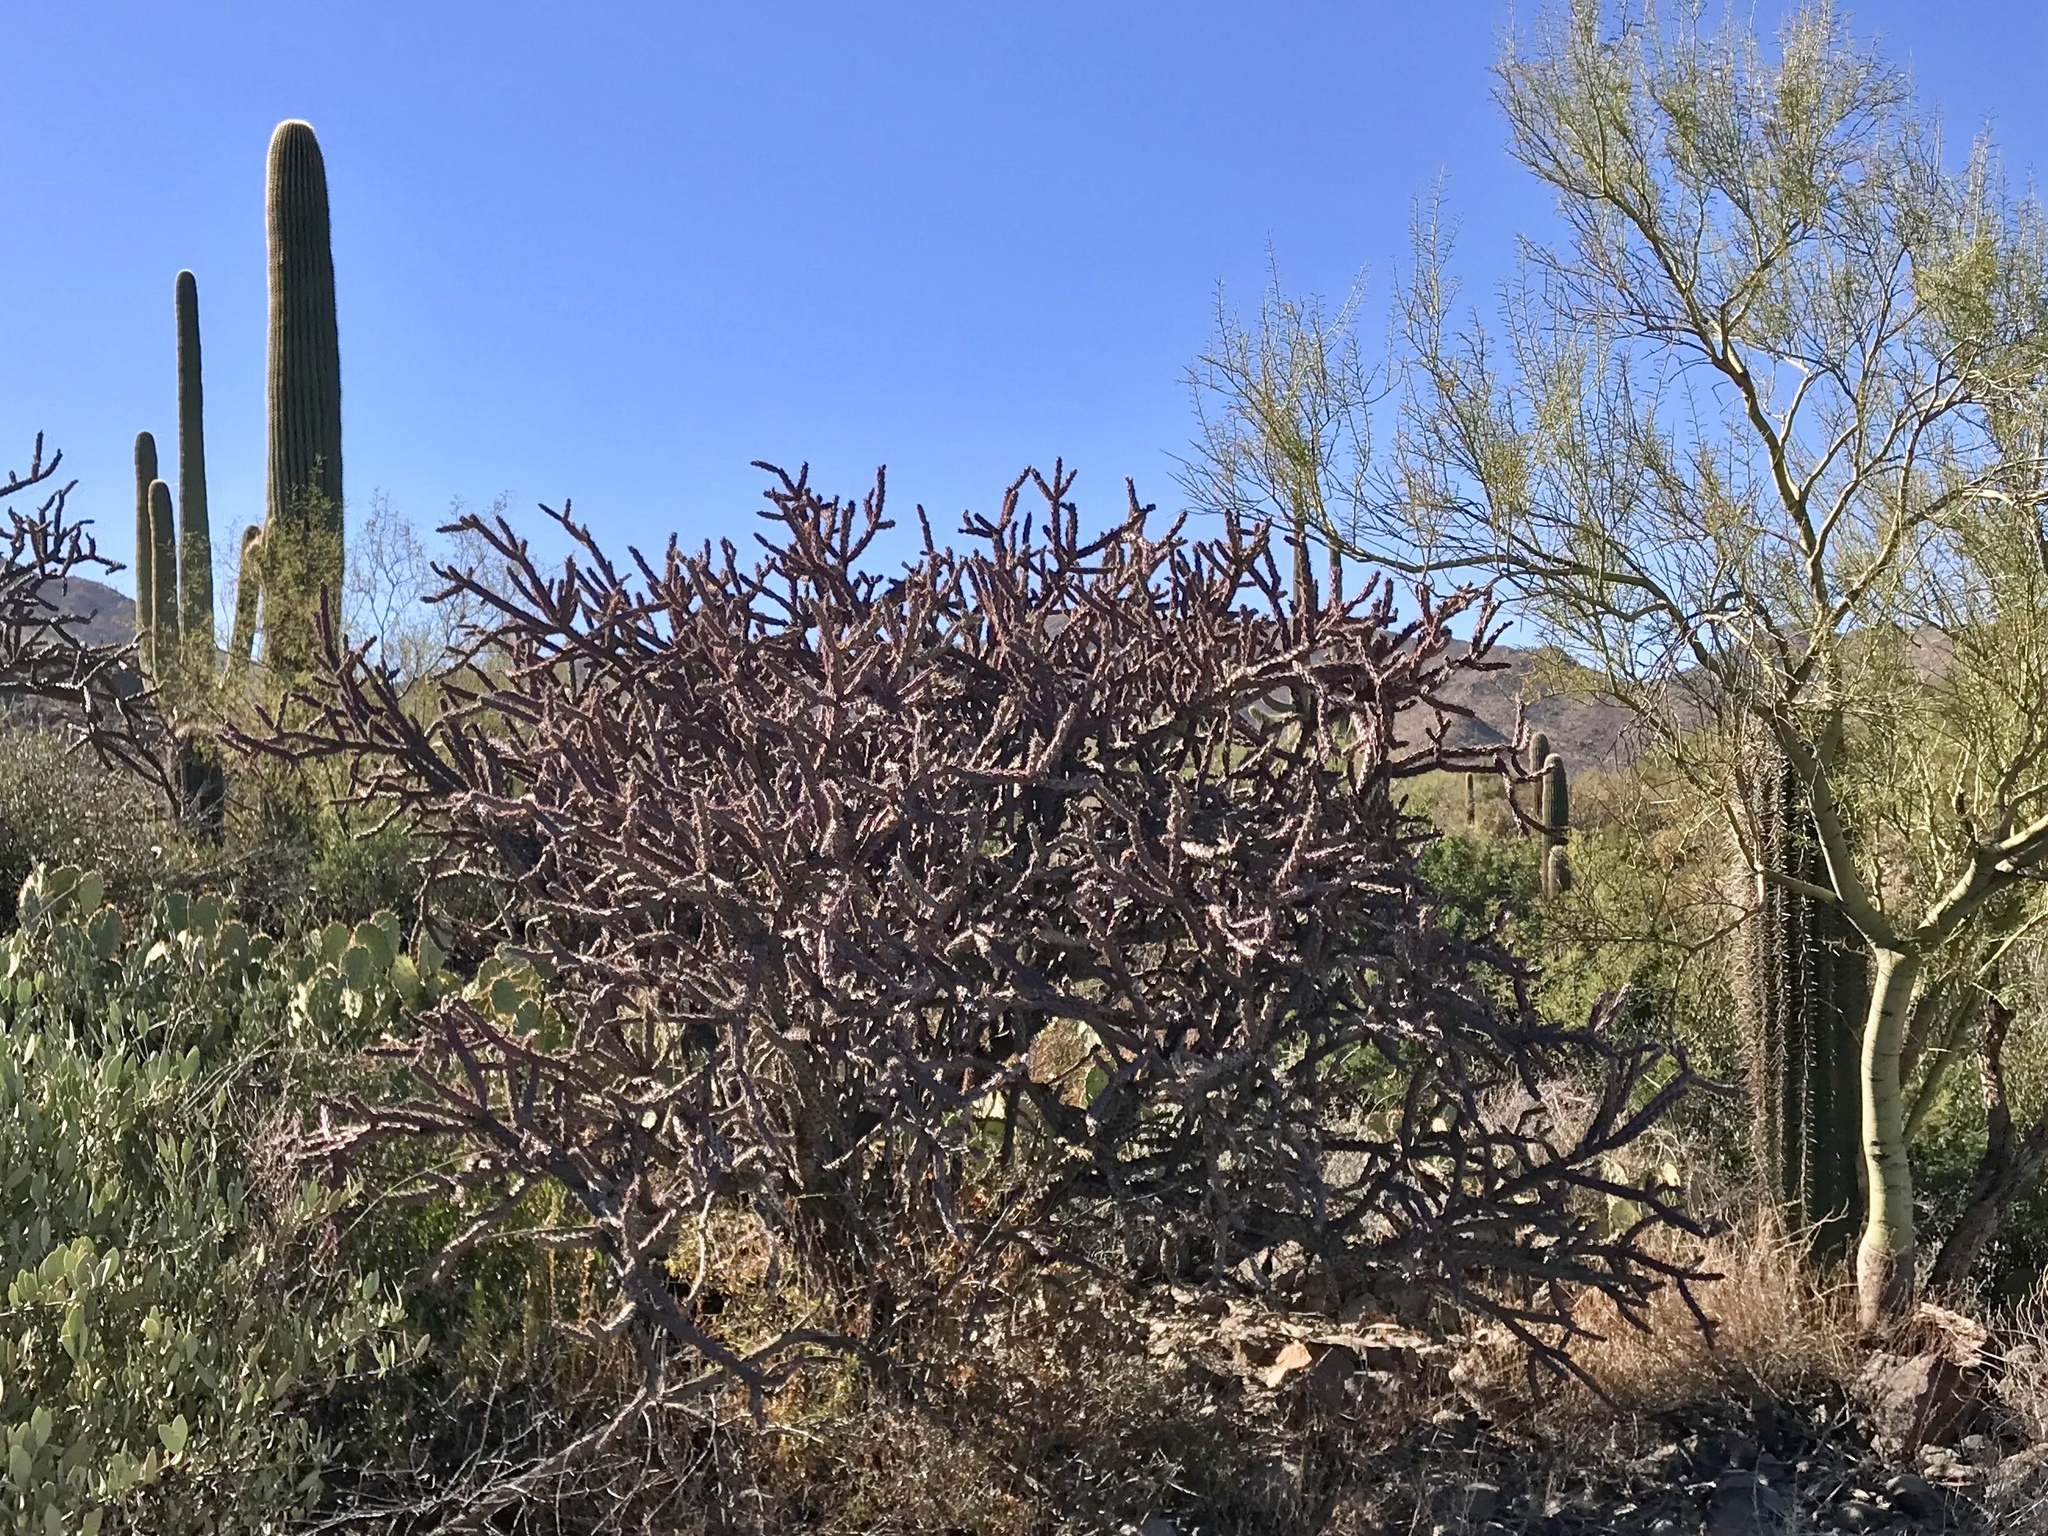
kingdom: Plantae
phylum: Tracheophyta
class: Magnoliopsida
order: Caryophyllales
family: Cactaceae
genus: Cylindropuntia
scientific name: Cylindropuntia thurberi
